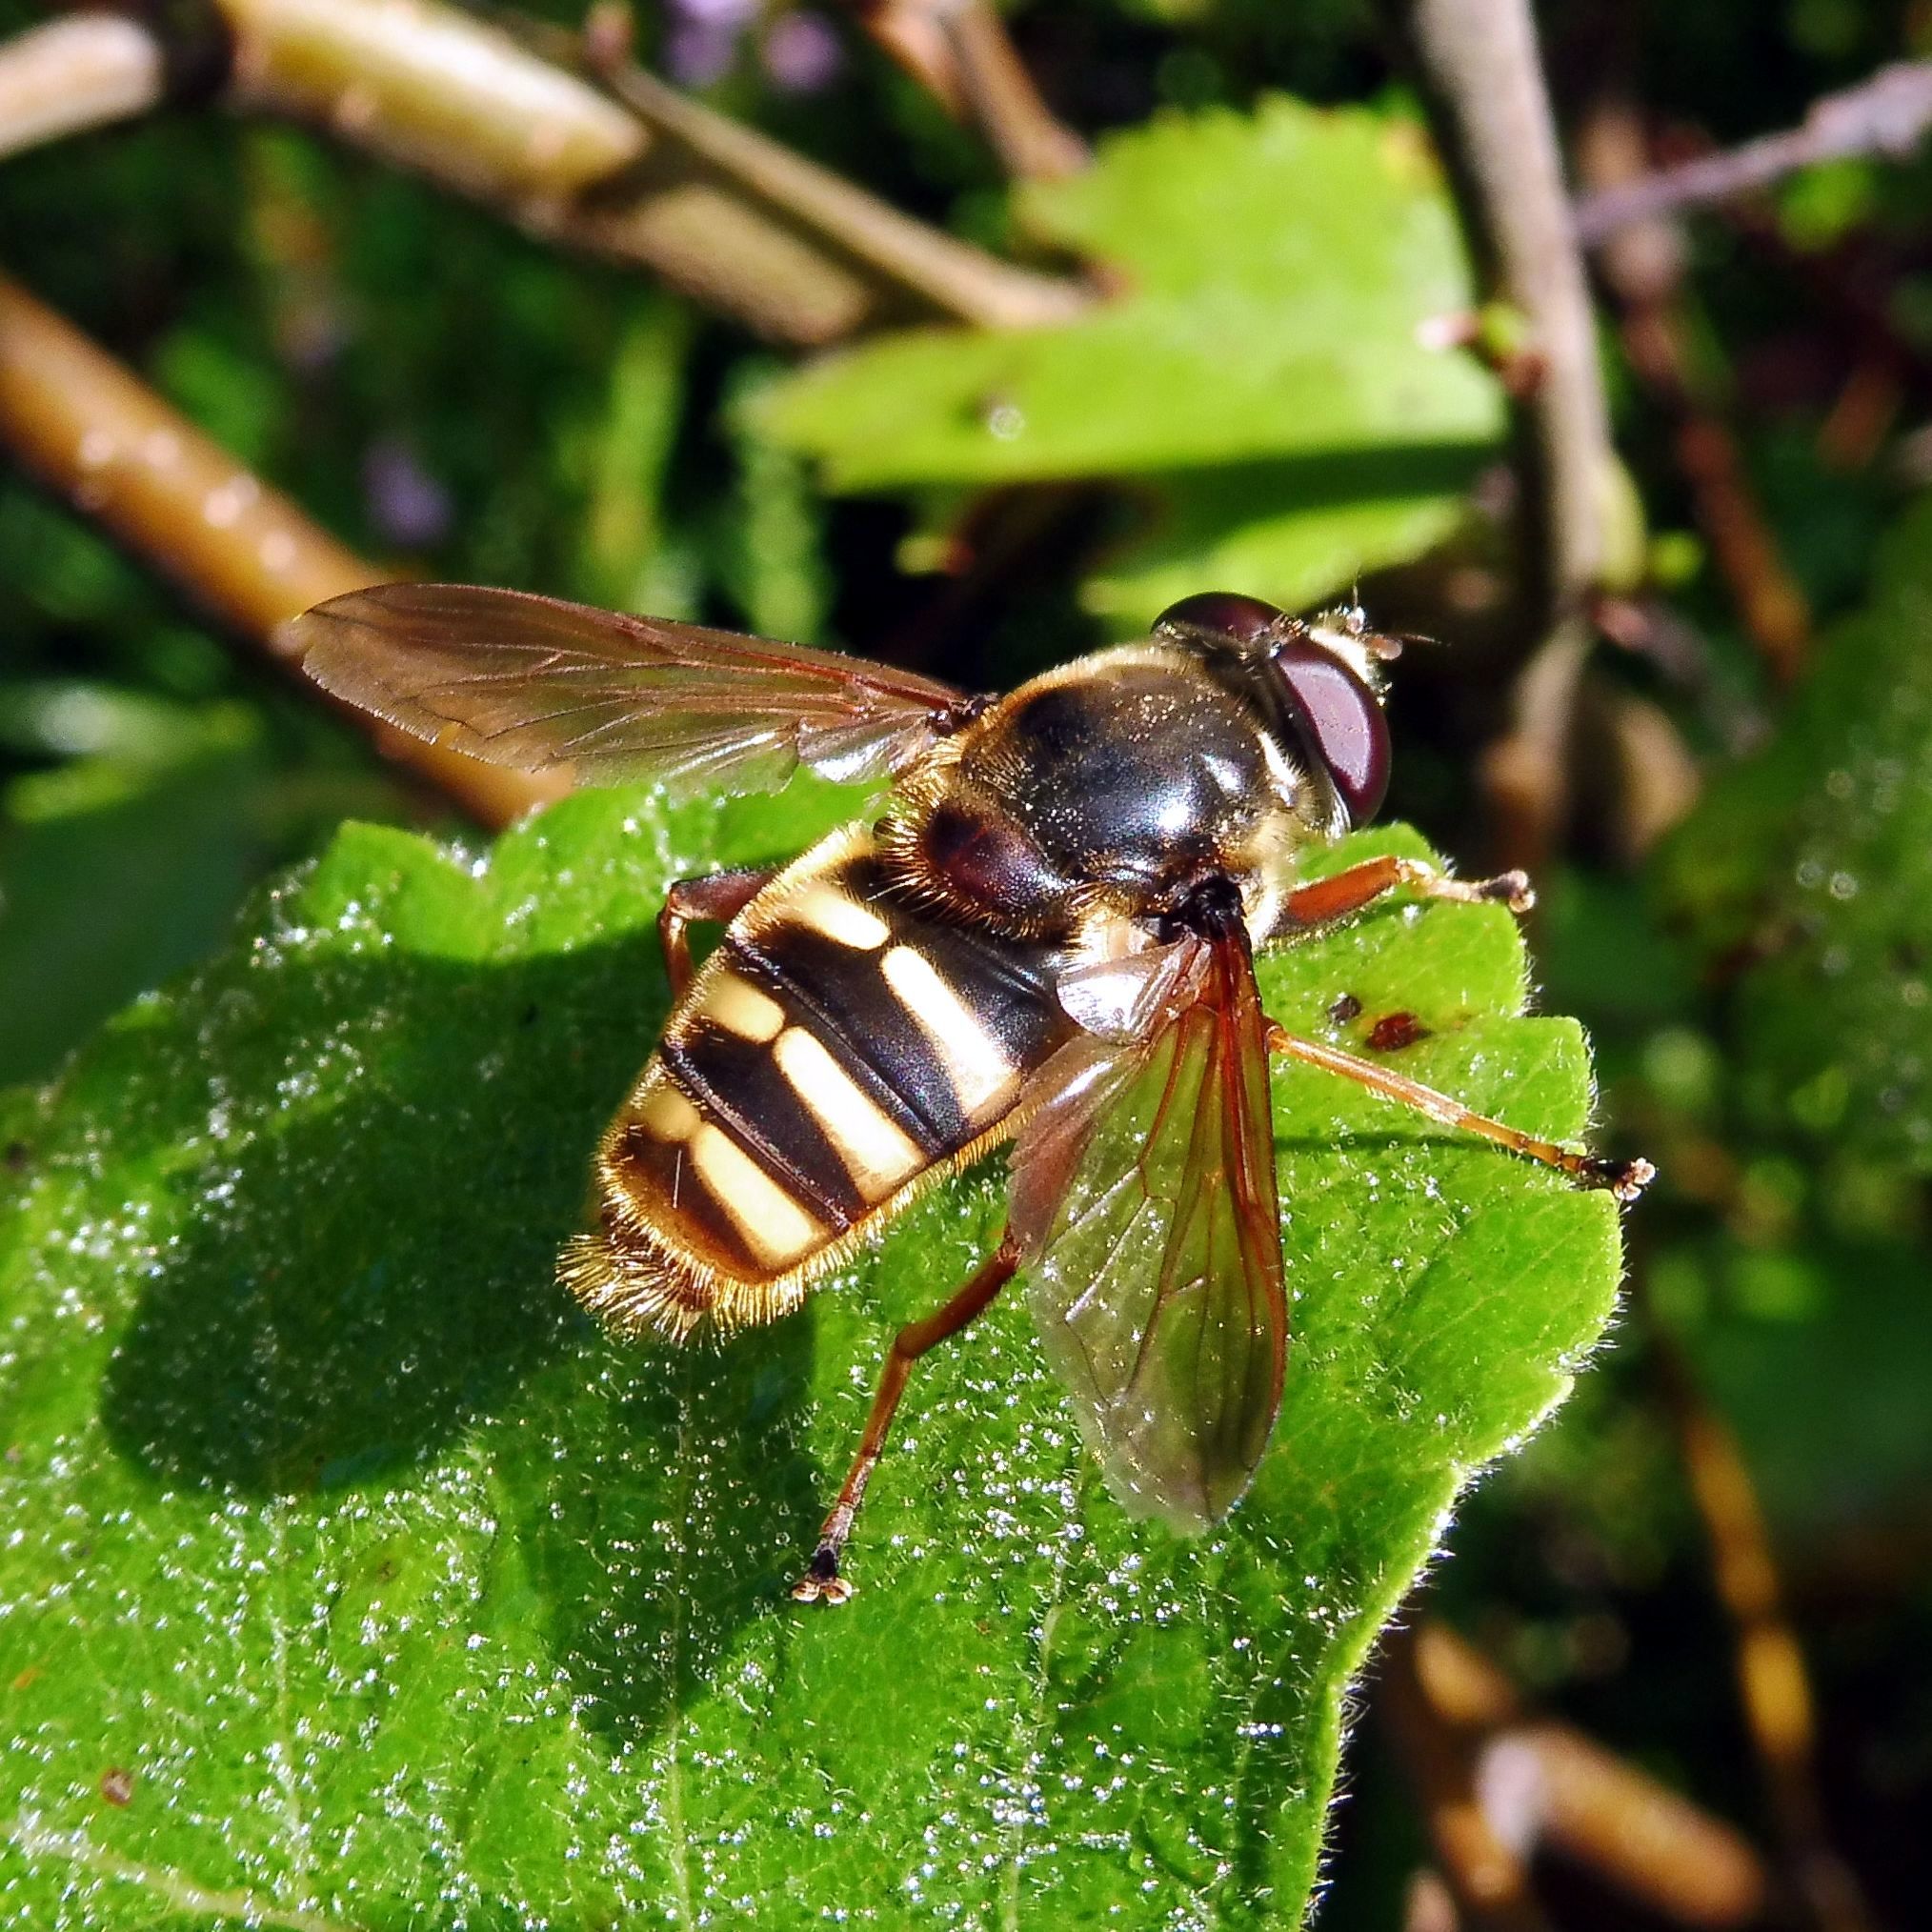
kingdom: Animalia
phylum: Arthropoda
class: Insecta
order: Diptera
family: Syrphidae
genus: Sericomyia
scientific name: Sericomyia silentis
